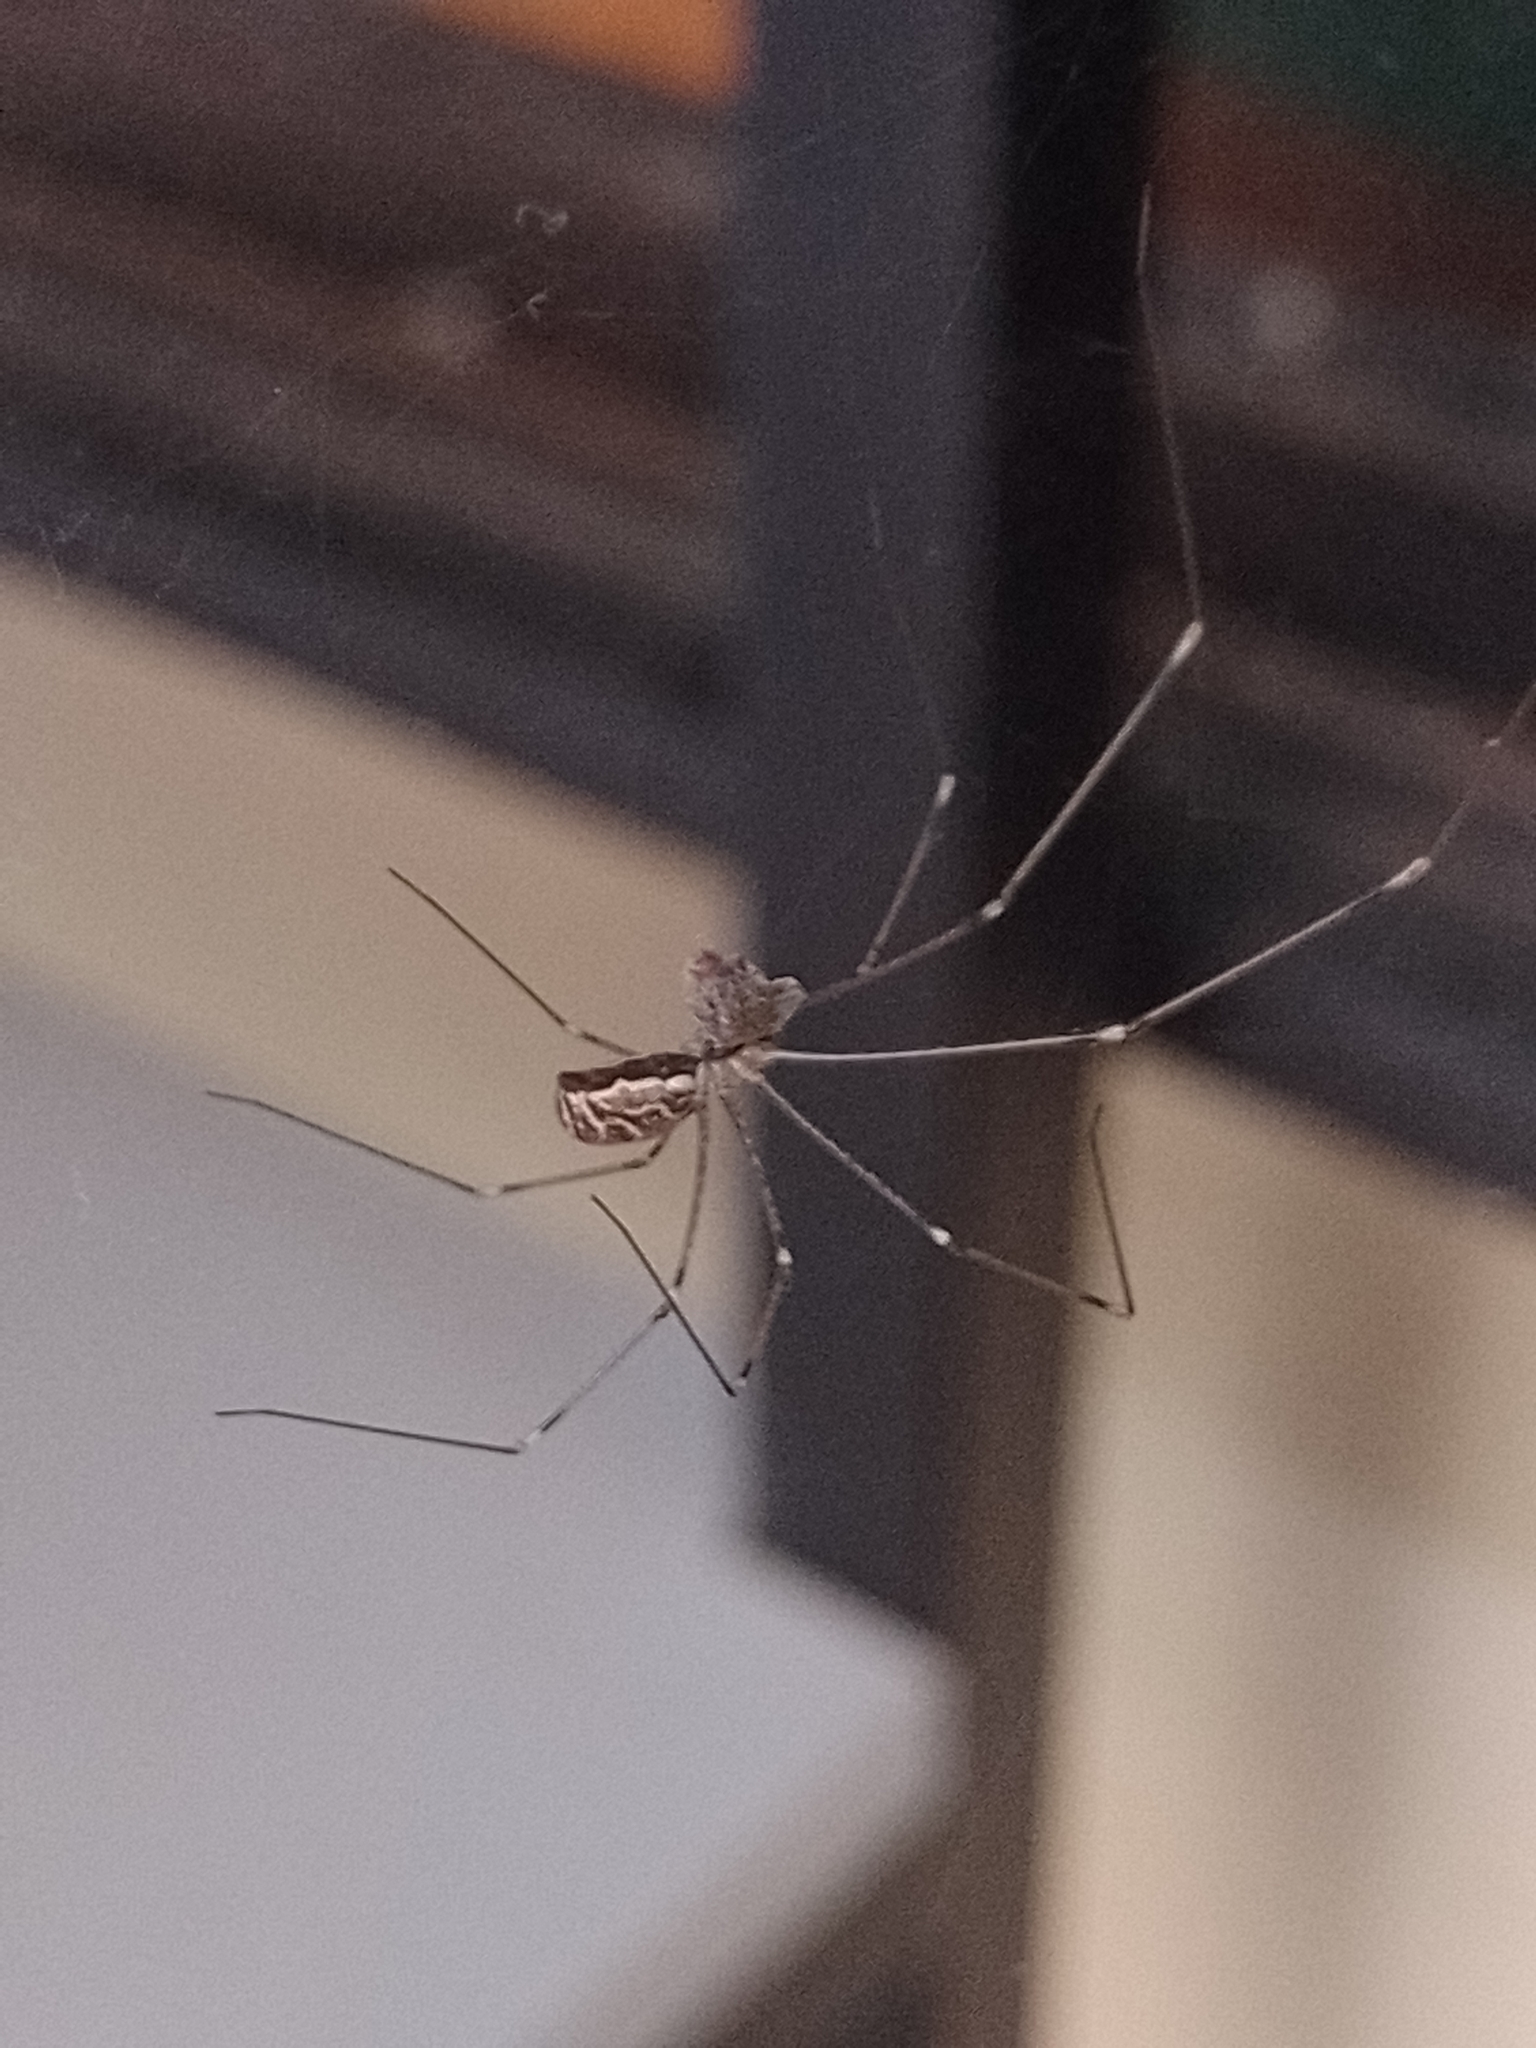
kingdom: Animalia
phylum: Arthropoda
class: Arachnida
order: Araneae
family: Pholcidae
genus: Holocnemus
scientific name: Holocnemus pluchei
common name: Marbled cellar spider
